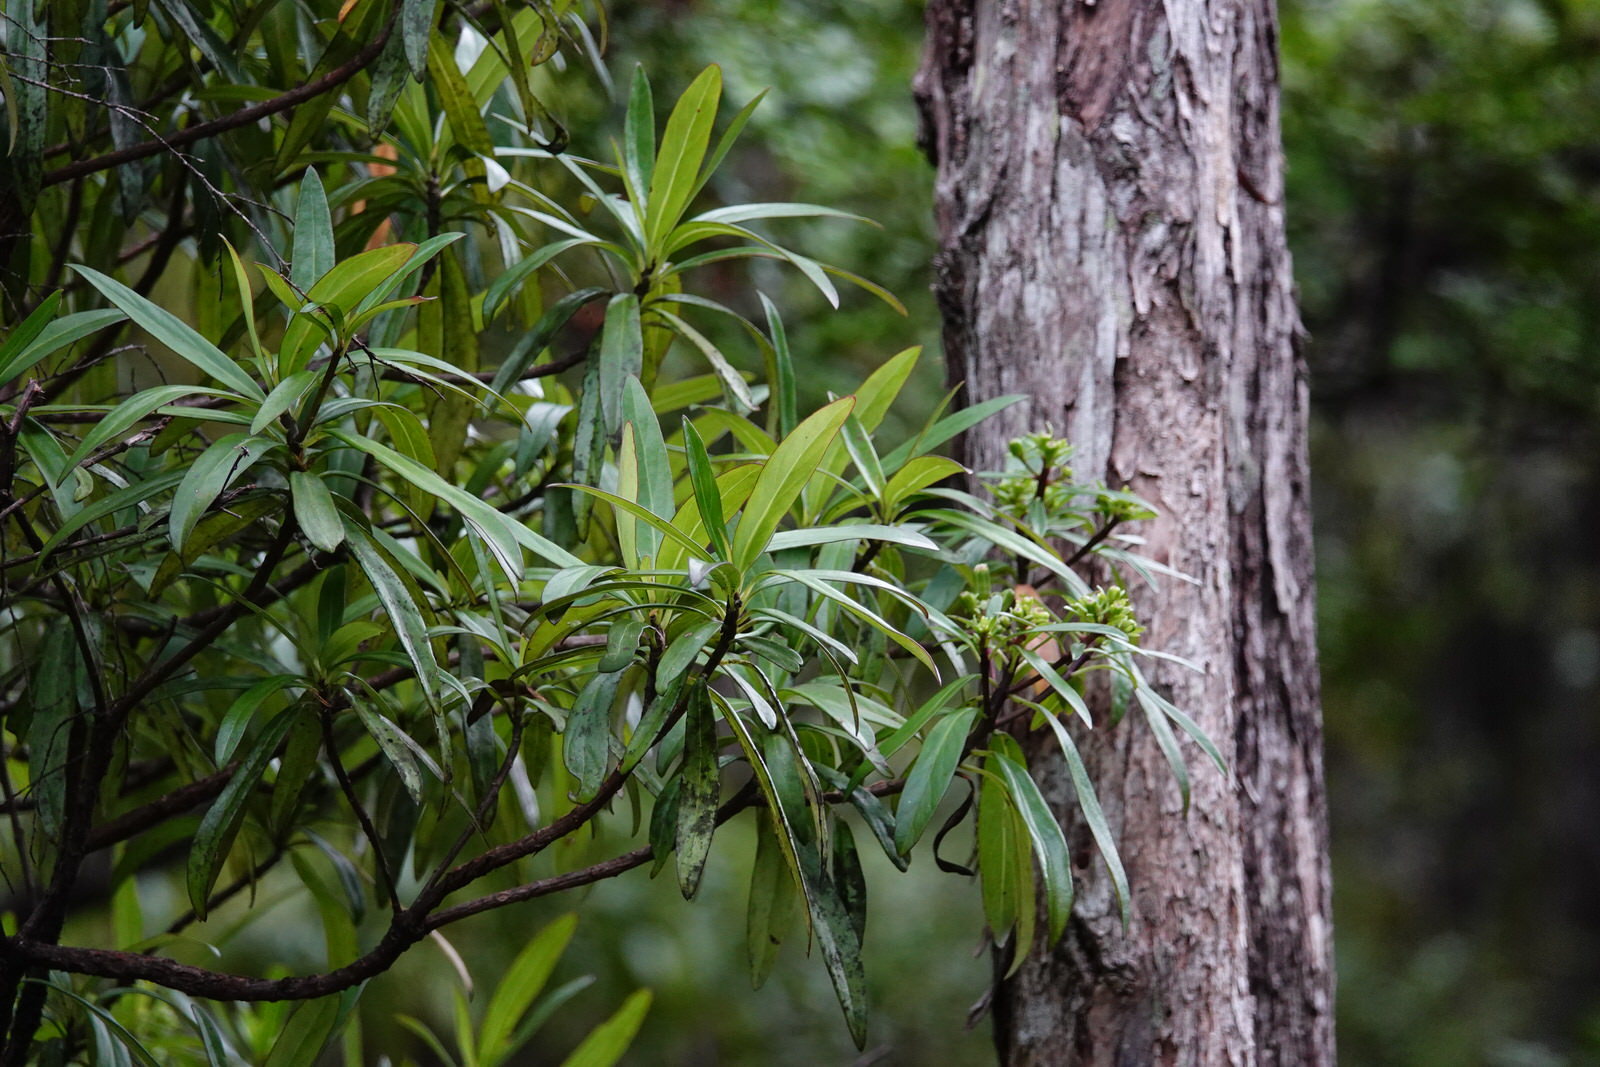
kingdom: Plantae
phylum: Tracheophyta
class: Magnoliopsida
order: Asterales
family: Asteraceae
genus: Brachyglottis
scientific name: Brachyglottis kirkii
